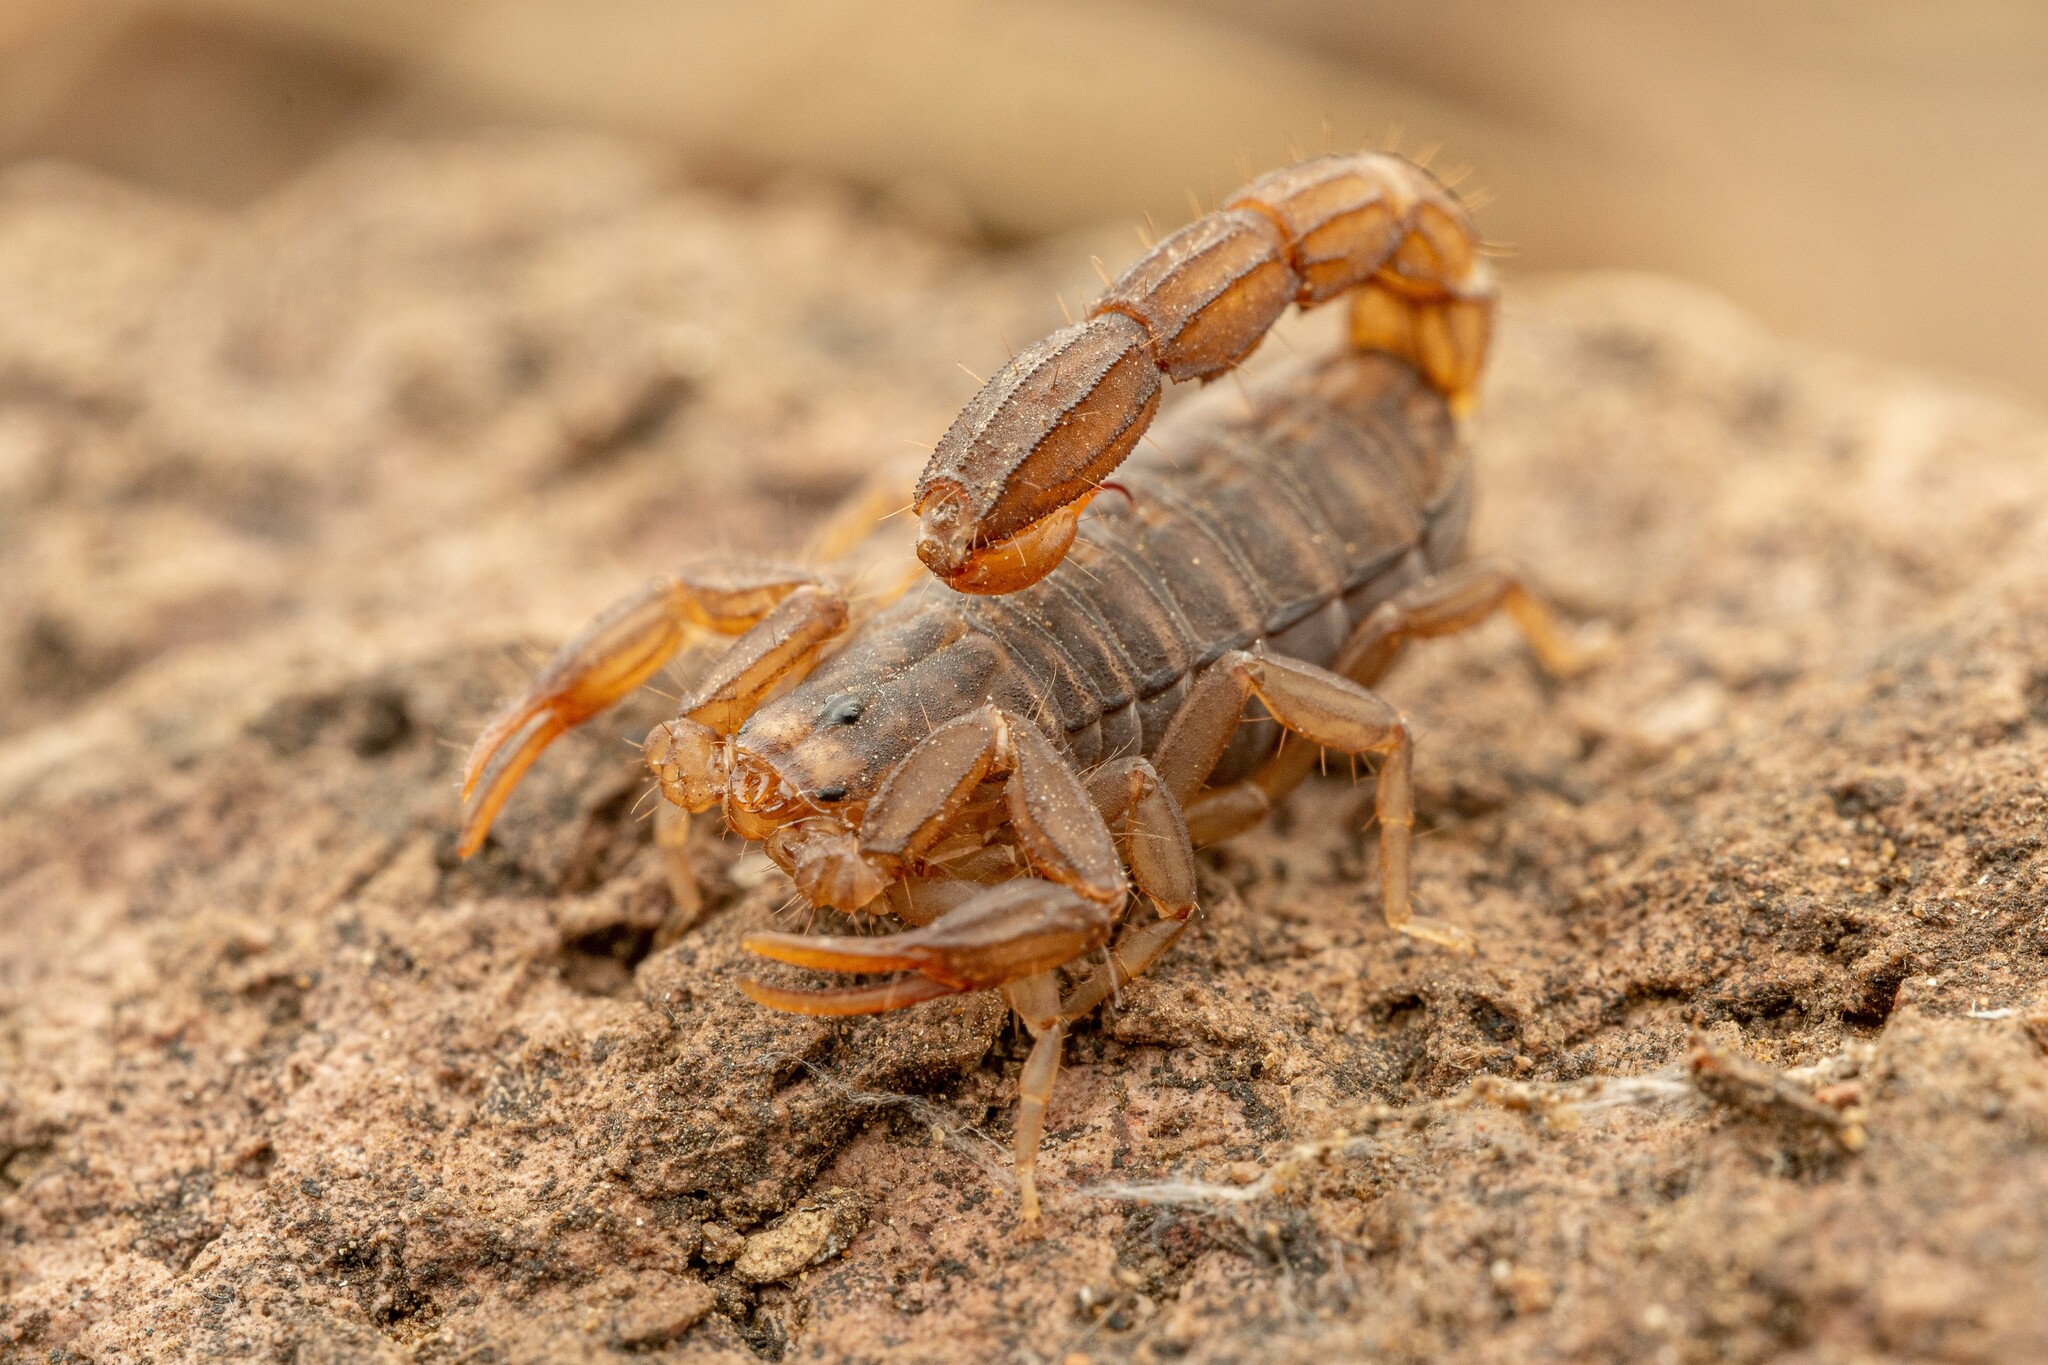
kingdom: Animalia
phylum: Arthropoda
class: Arachnida
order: Scorpiones
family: Vaejovidae
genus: Vaejovis
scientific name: Vaejovis cashi
